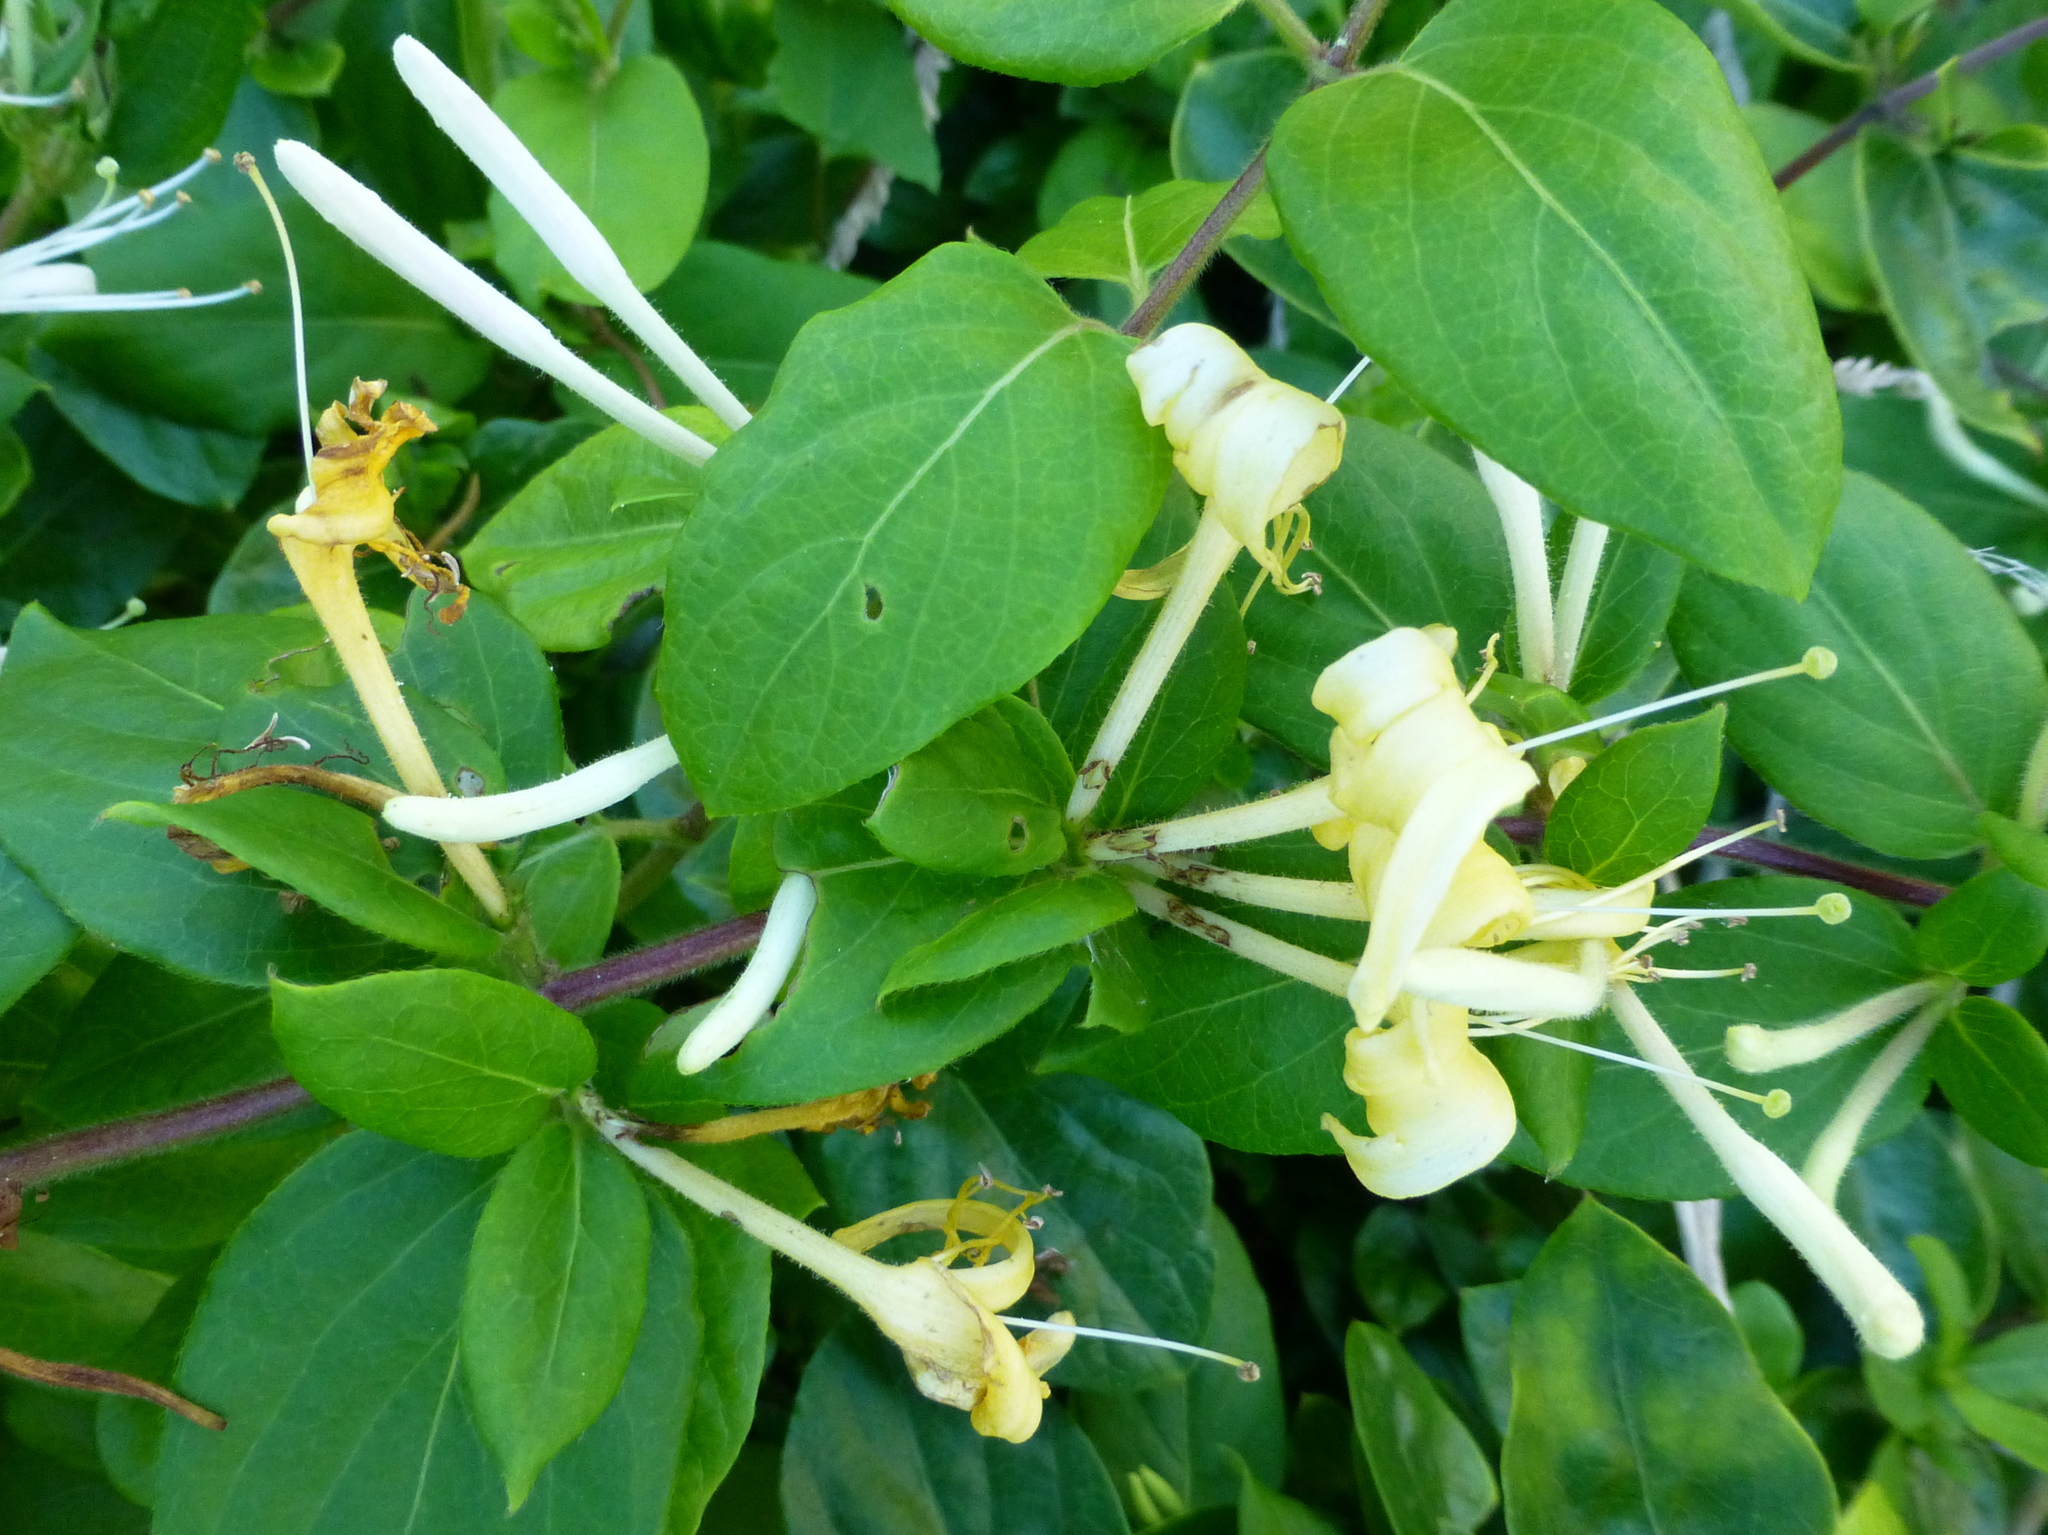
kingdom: Plantae
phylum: Tracheophyta
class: Magnoliopsida
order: Dipsacales
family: Caprifoliaceae
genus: Lonicera
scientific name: Lonicera japonica
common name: Japanese honeysuckle
